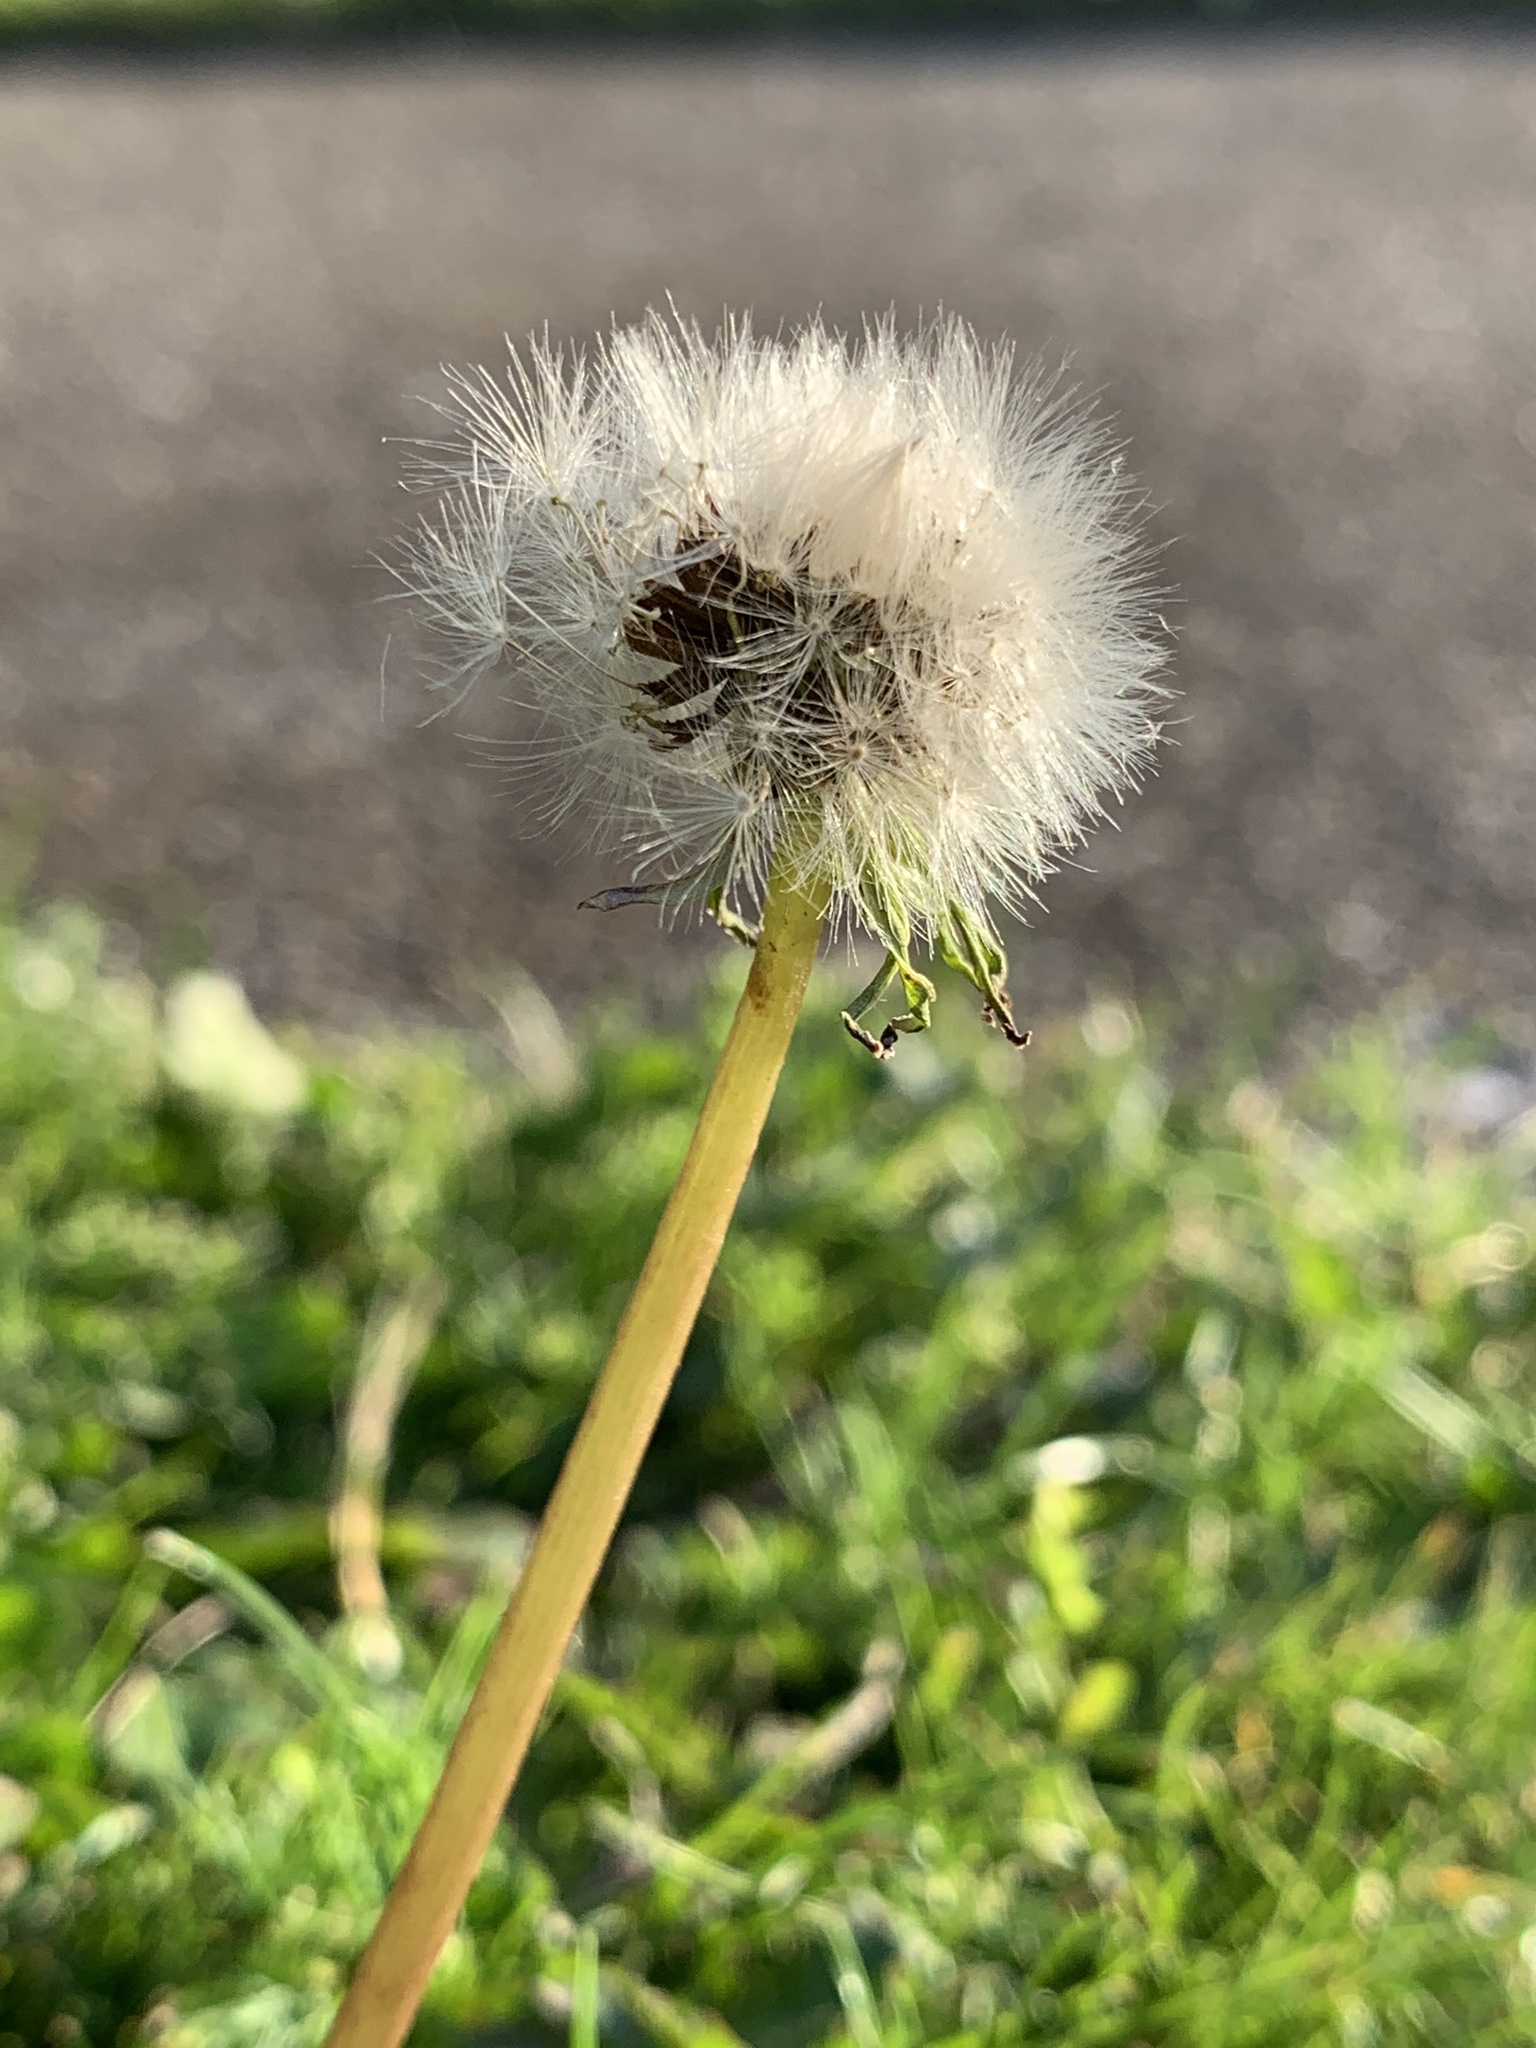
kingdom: Plantae
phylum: Tracheophyta
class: Magnoliopsida
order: Asterales
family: Asteraceae
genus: Taraxacum
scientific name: Taraxacum officinale
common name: Common dandelion
